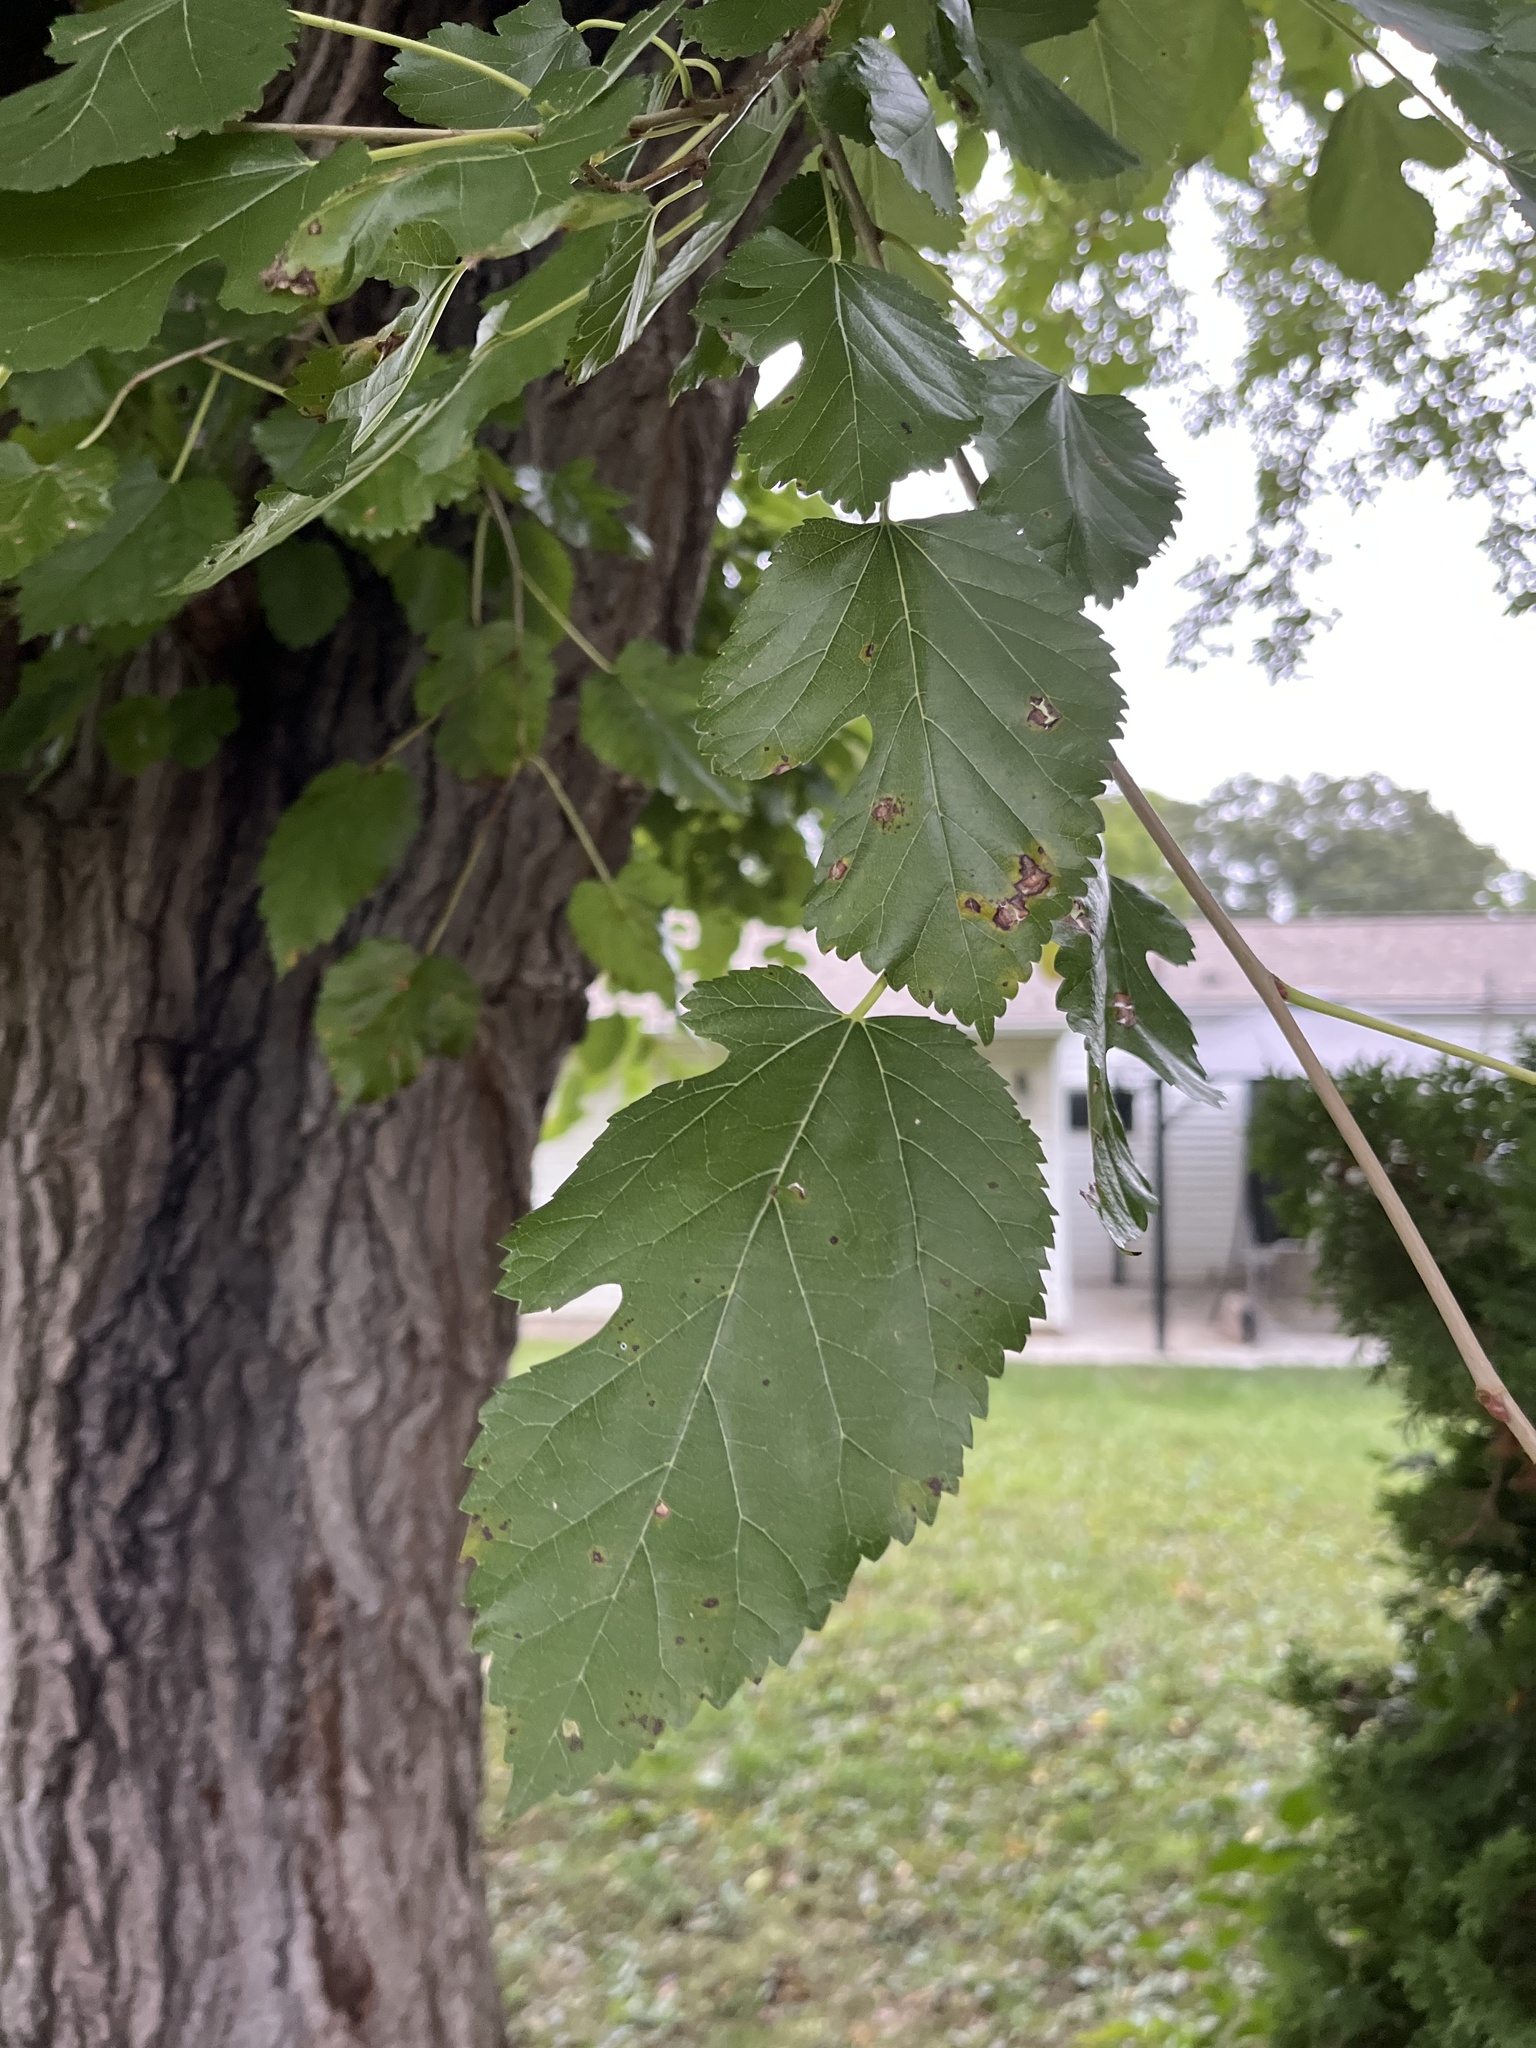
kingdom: Plantae
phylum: Tracheophyta
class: Magnoliopsida
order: Rosales
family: Moraceae
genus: Morus
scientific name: Morus alba
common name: White mulberry
